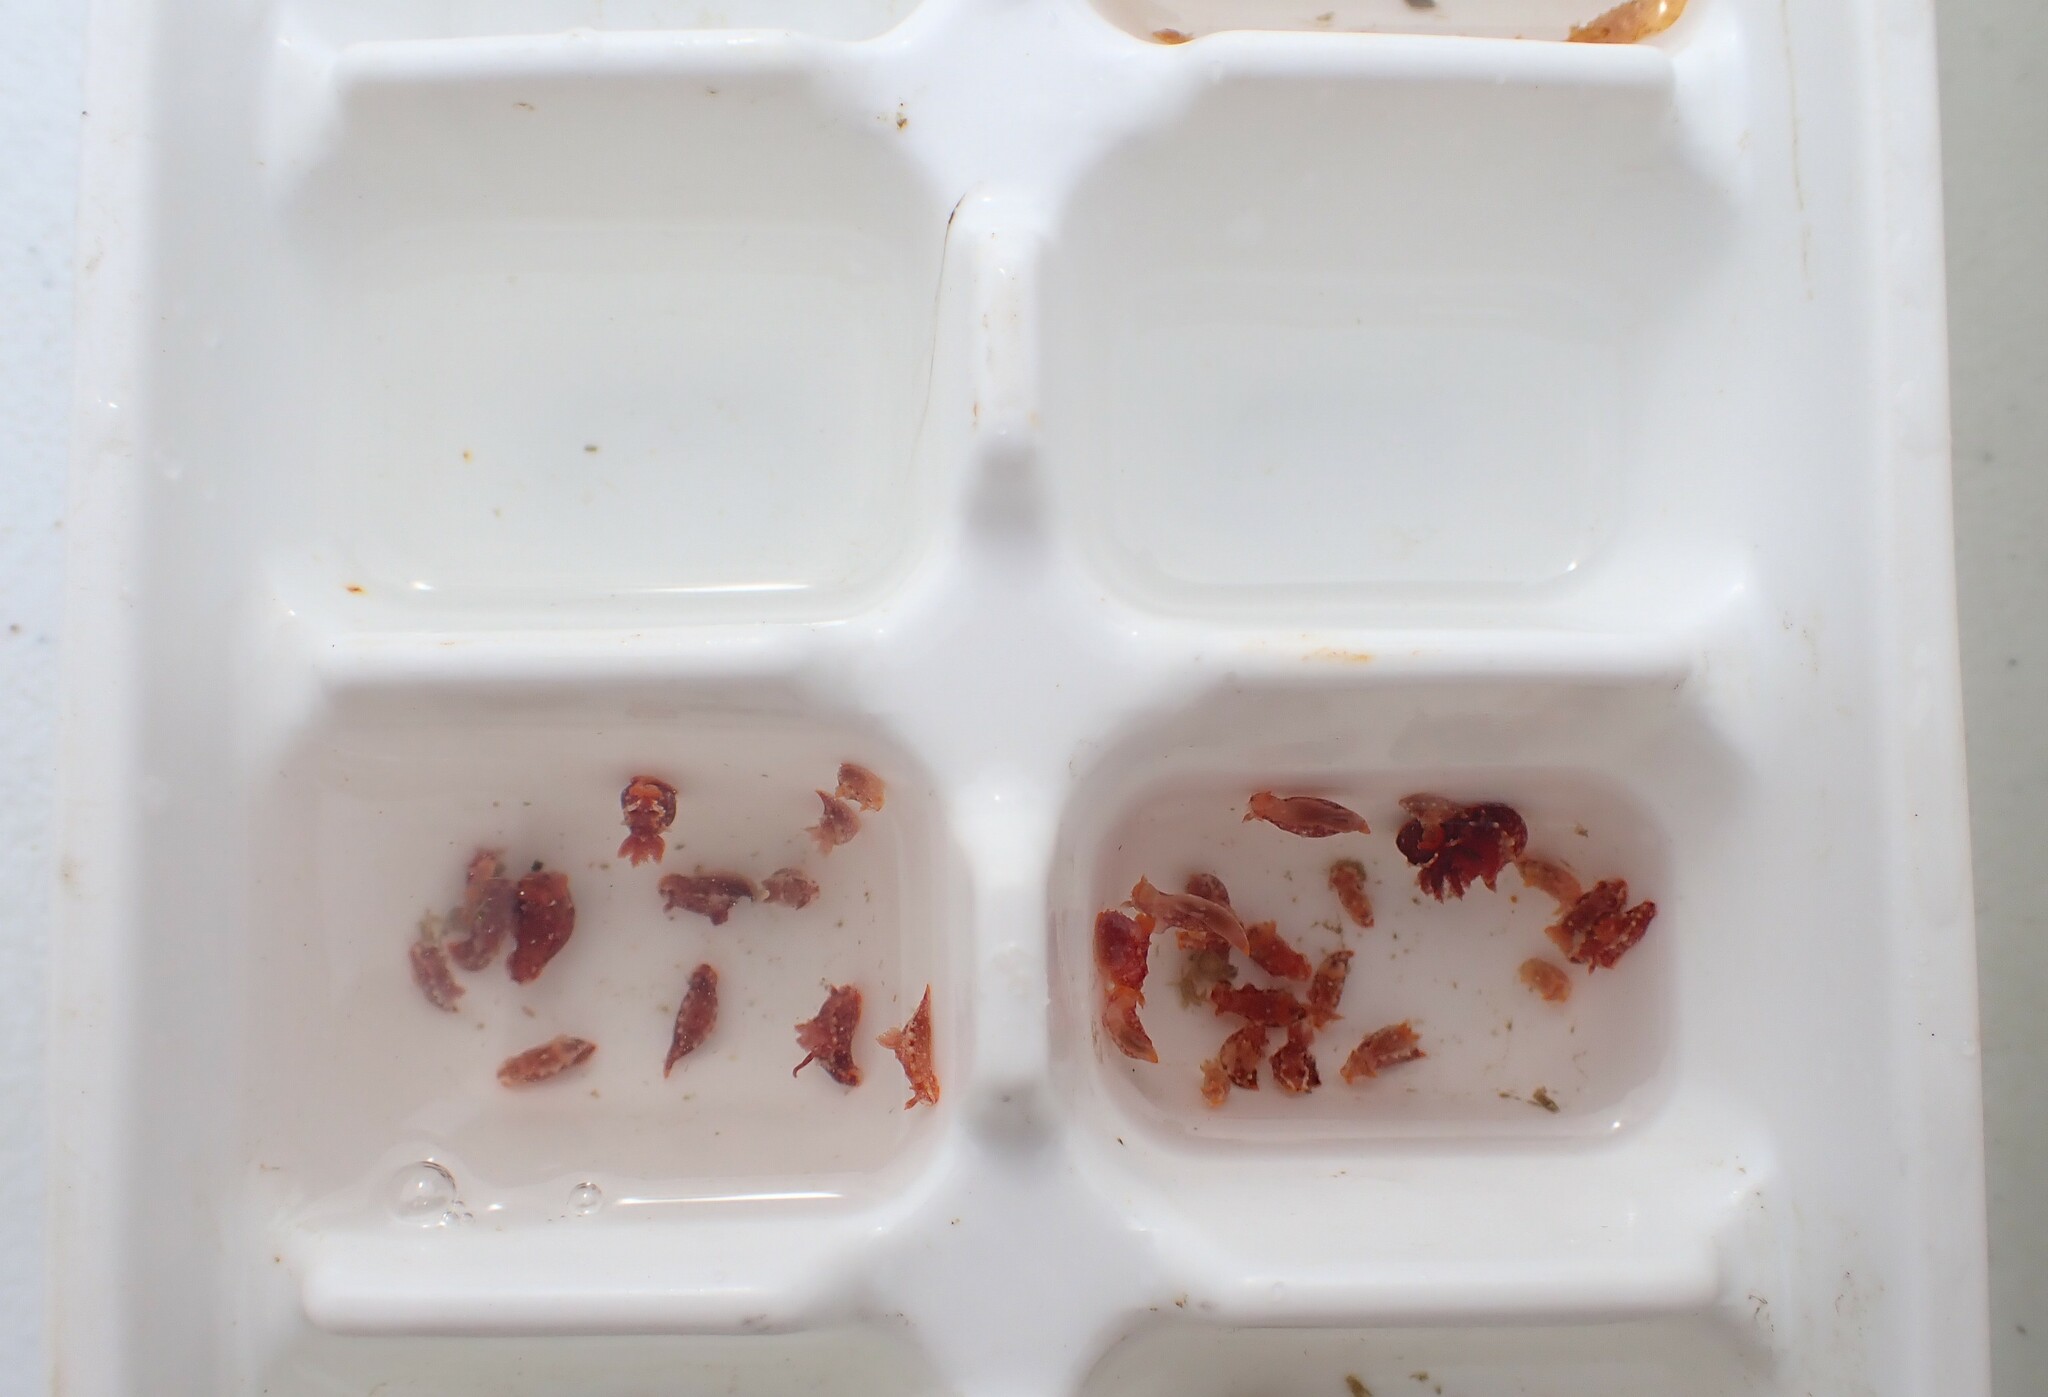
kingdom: Animalia
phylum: Mollusca
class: Gastropoda
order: Nudibranchia
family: Polyceridae
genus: Polycera
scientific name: Polycera parvula
